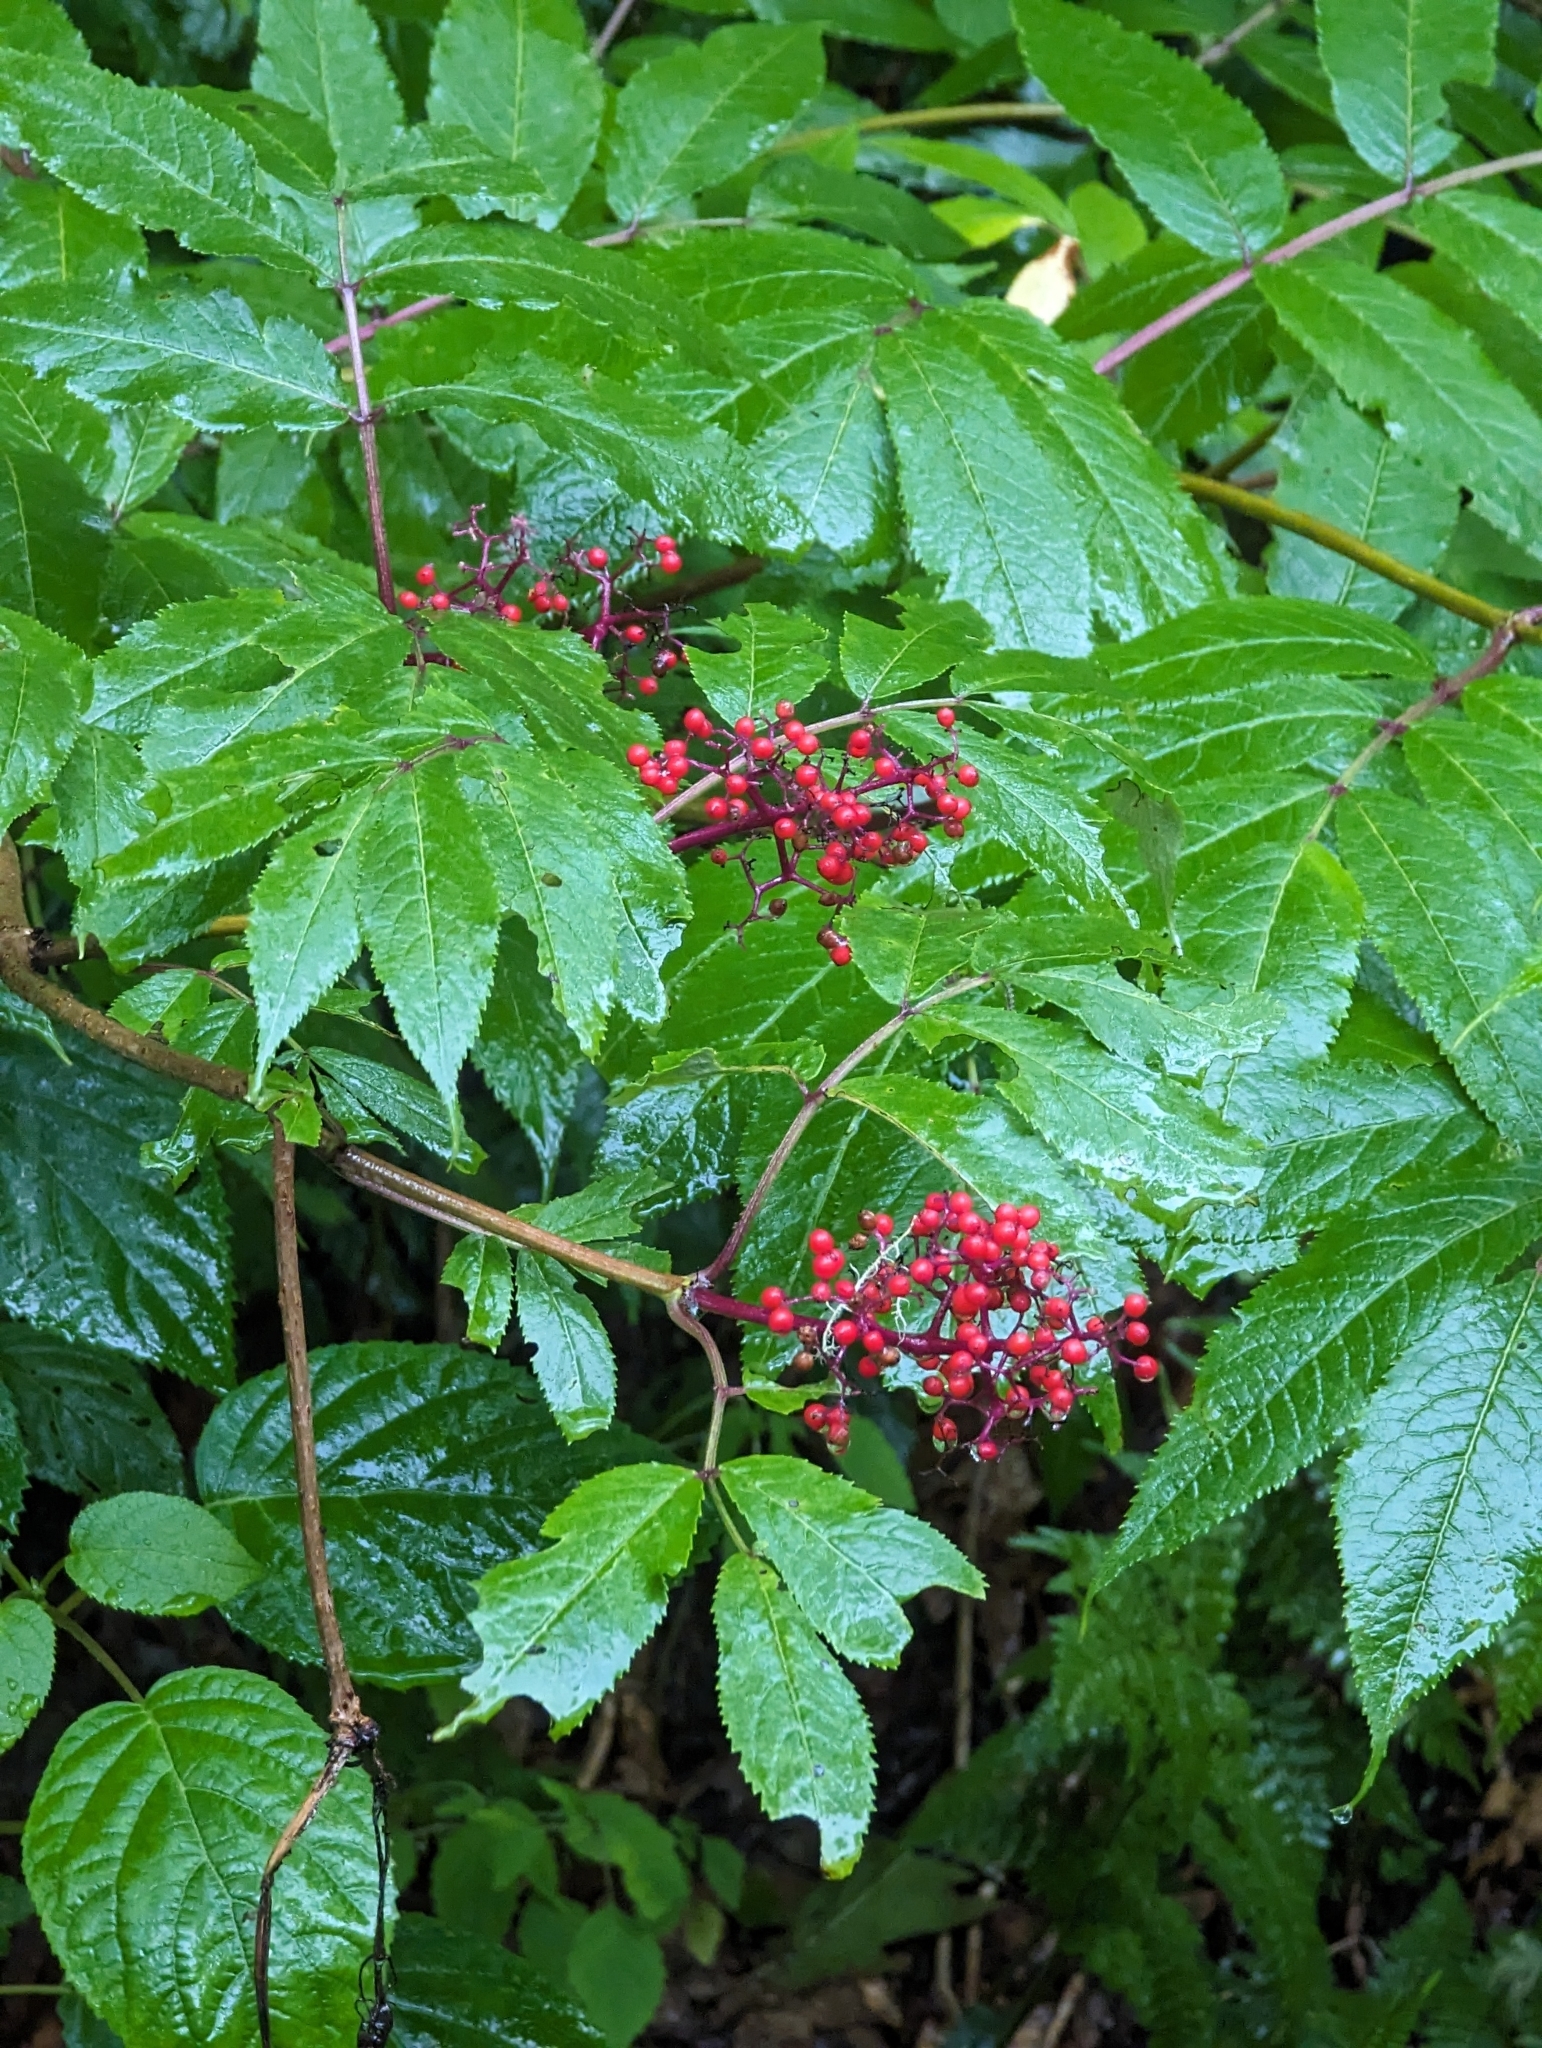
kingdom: Plantae
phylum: Tracheophyta
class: Magnoliopsida
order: Dipsacales
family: Viburnaceae
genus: Sambucus
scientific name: Sambucus racemosa
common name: Red-berried elder
